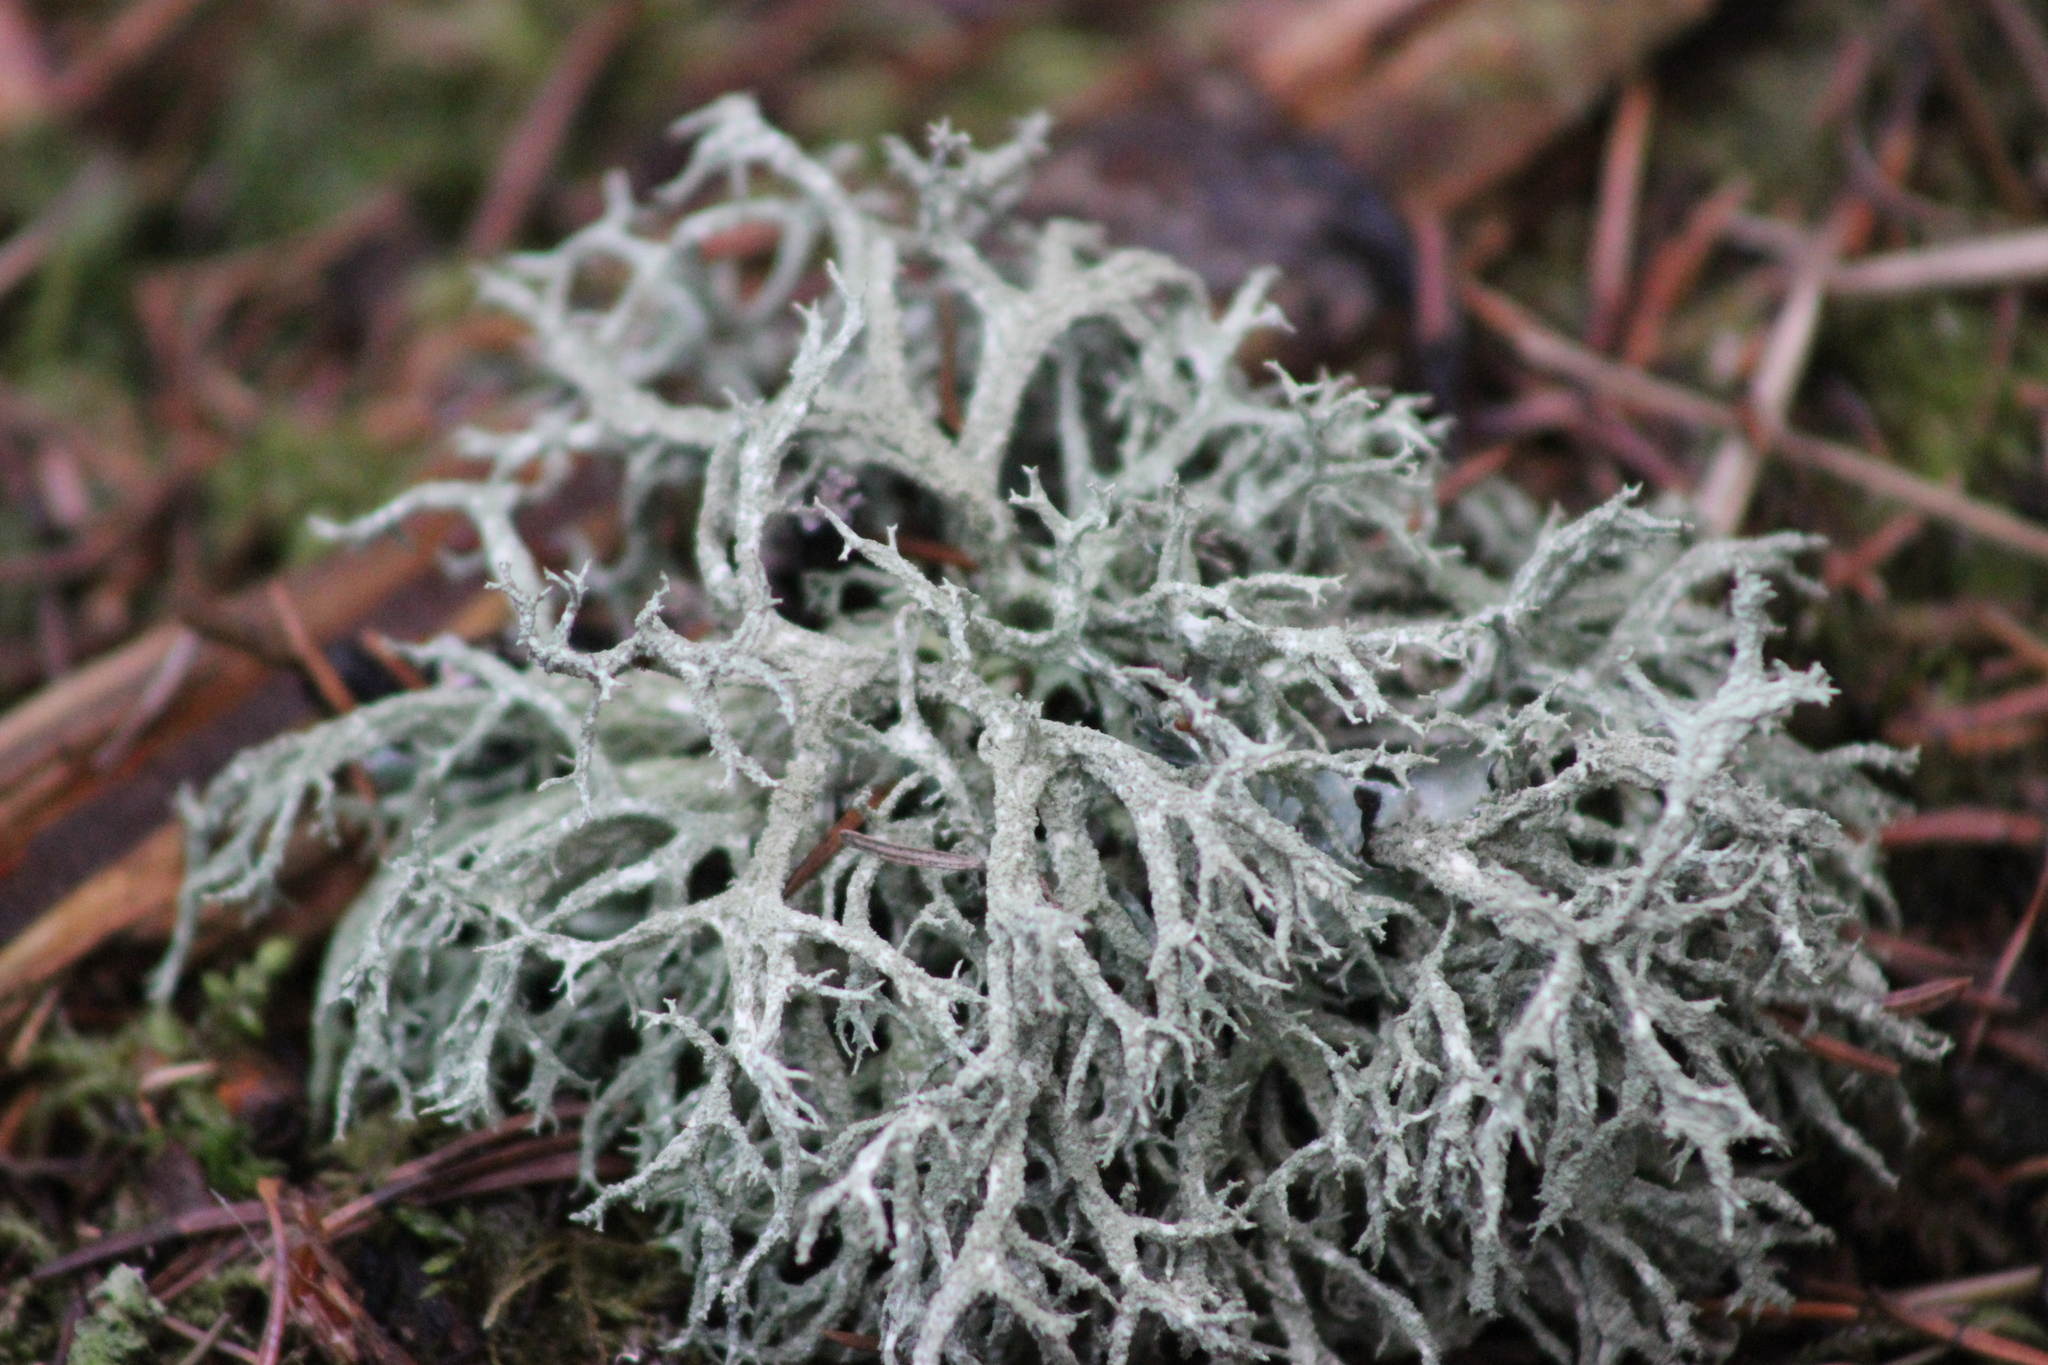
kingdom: Fungi
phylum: Ascomycota
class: Lecanoromycetes
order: Lecanorales
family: Parmeliaceae
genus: Evernia
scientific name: Evernia mesomorpha
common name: Boreal oak moss lichen
